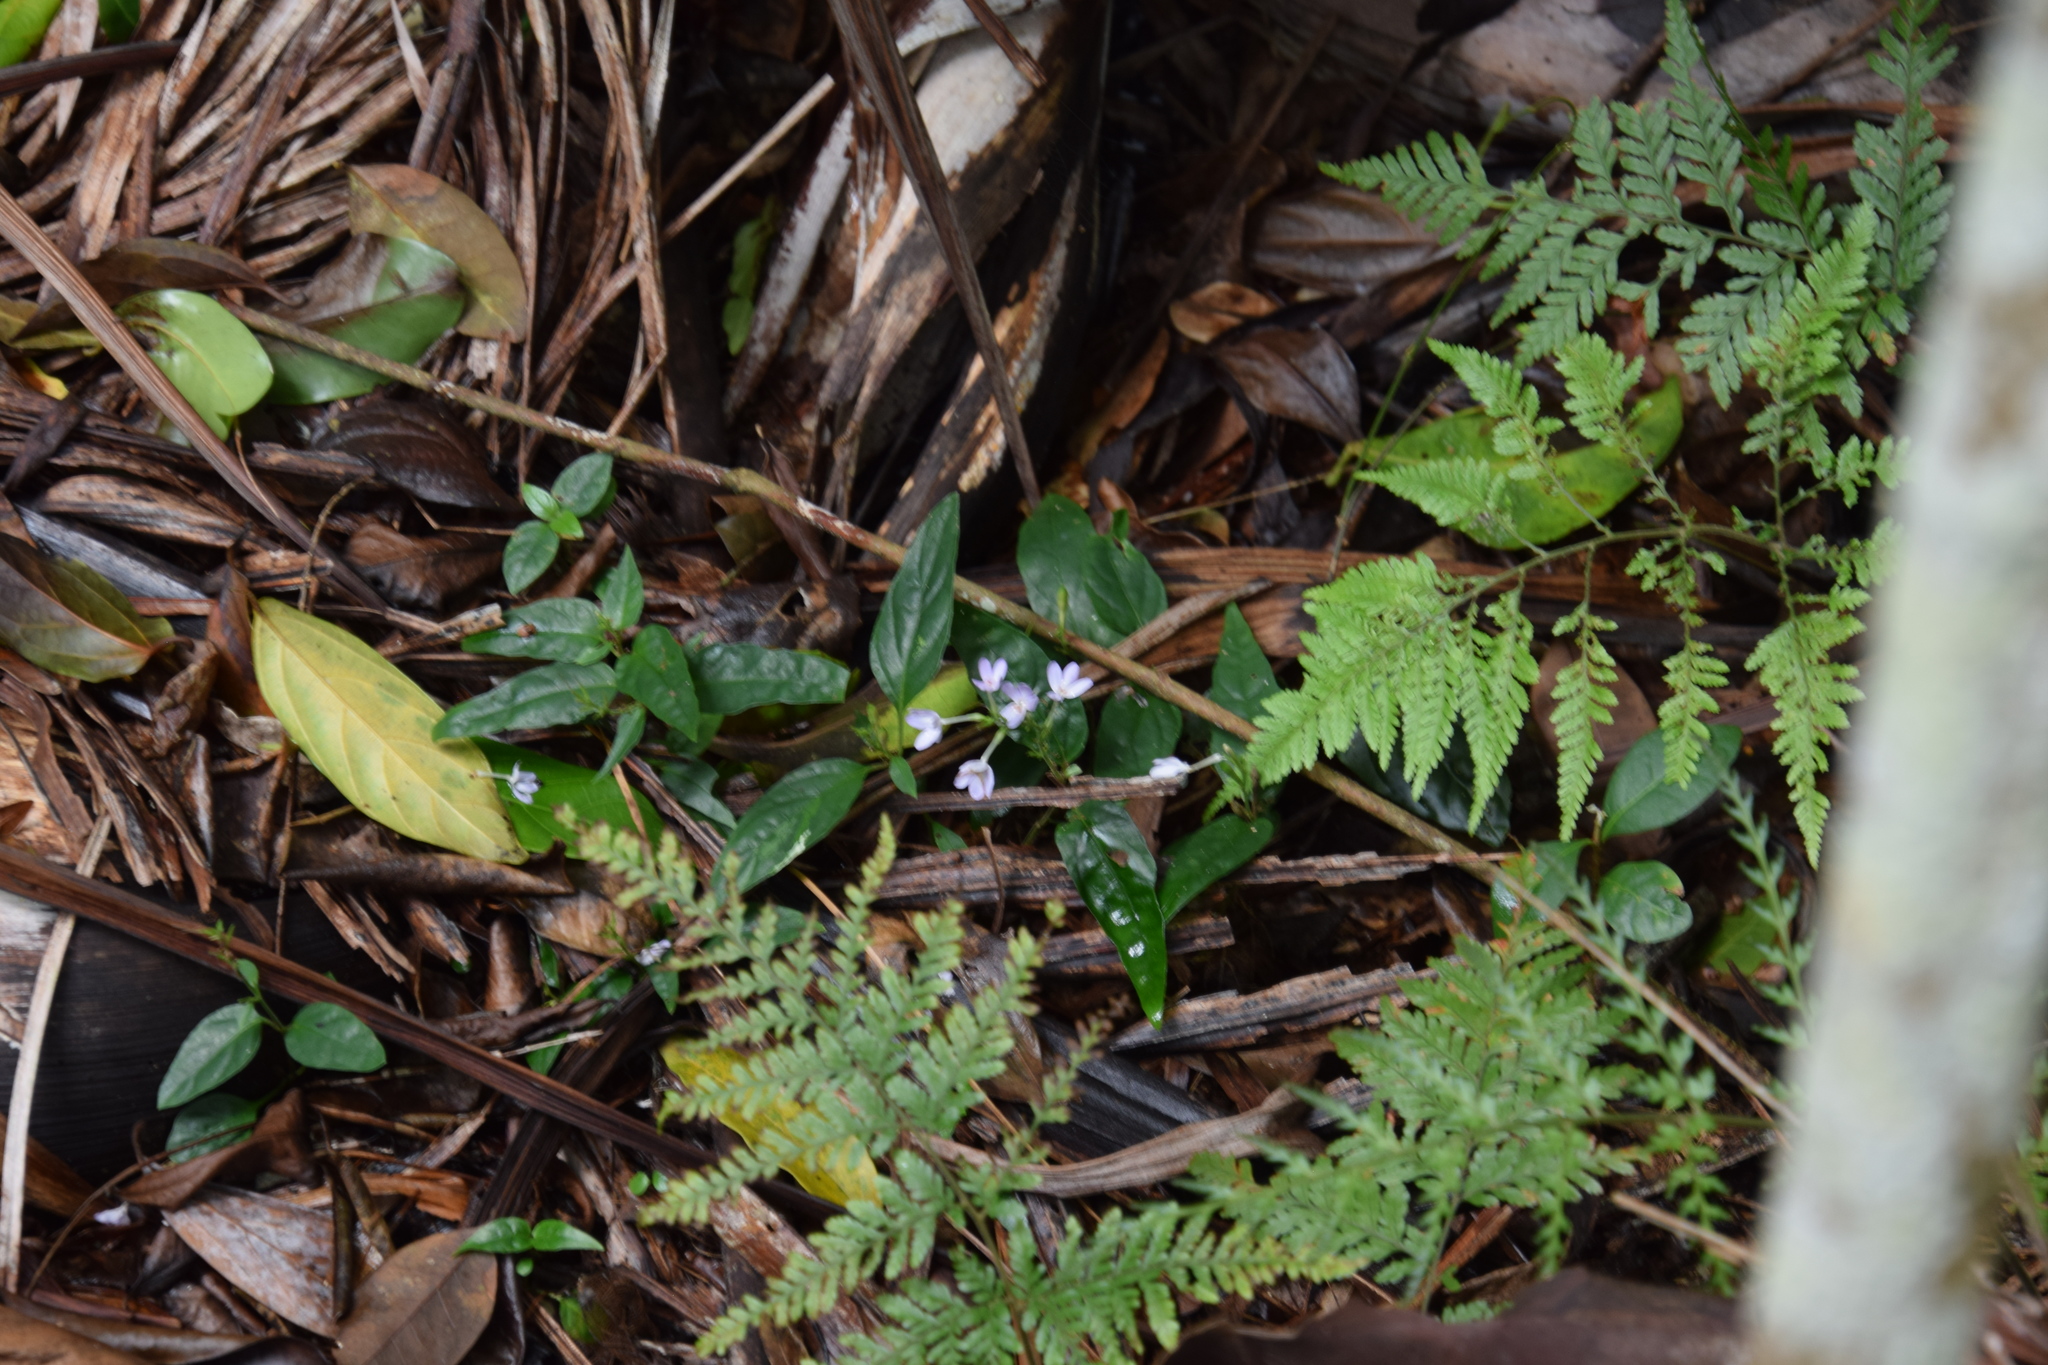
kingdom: Plantae
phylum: Tracheophyta
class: Magnoliopsida
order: Lamiales
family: Acanthaceae
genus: Pseuderanthemum
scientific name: Pseuderanthemum variabile
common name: Night and afternoon
